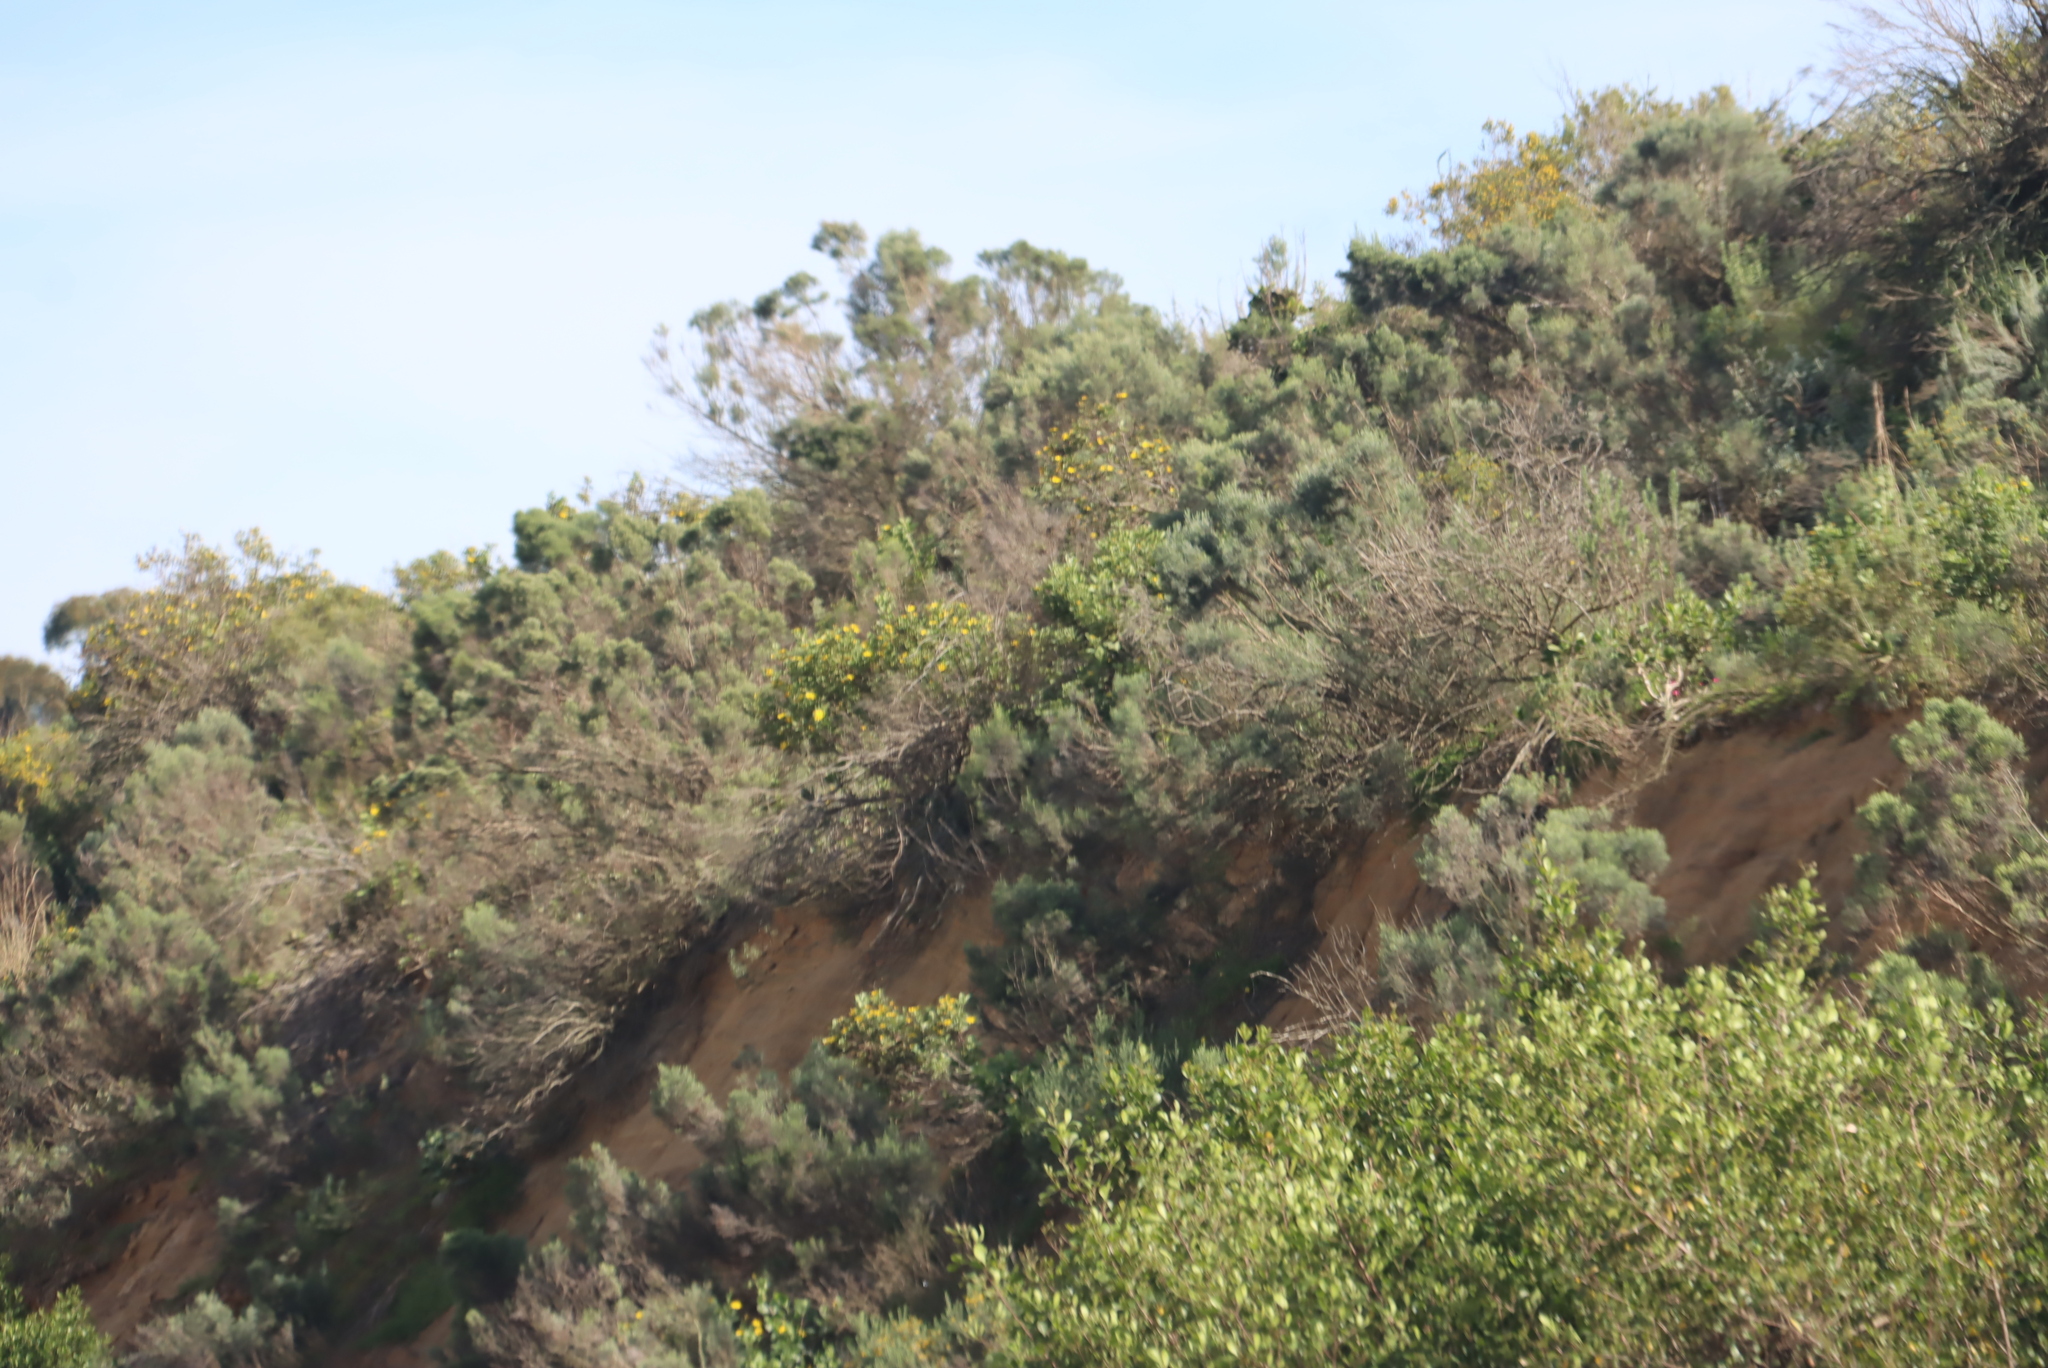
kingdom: Plantae
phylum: Tracheophyta
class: Magnoliopsida
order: Asterales
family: Asteraceae
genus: Osteospermum
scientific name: Osteospermum moniliferum
